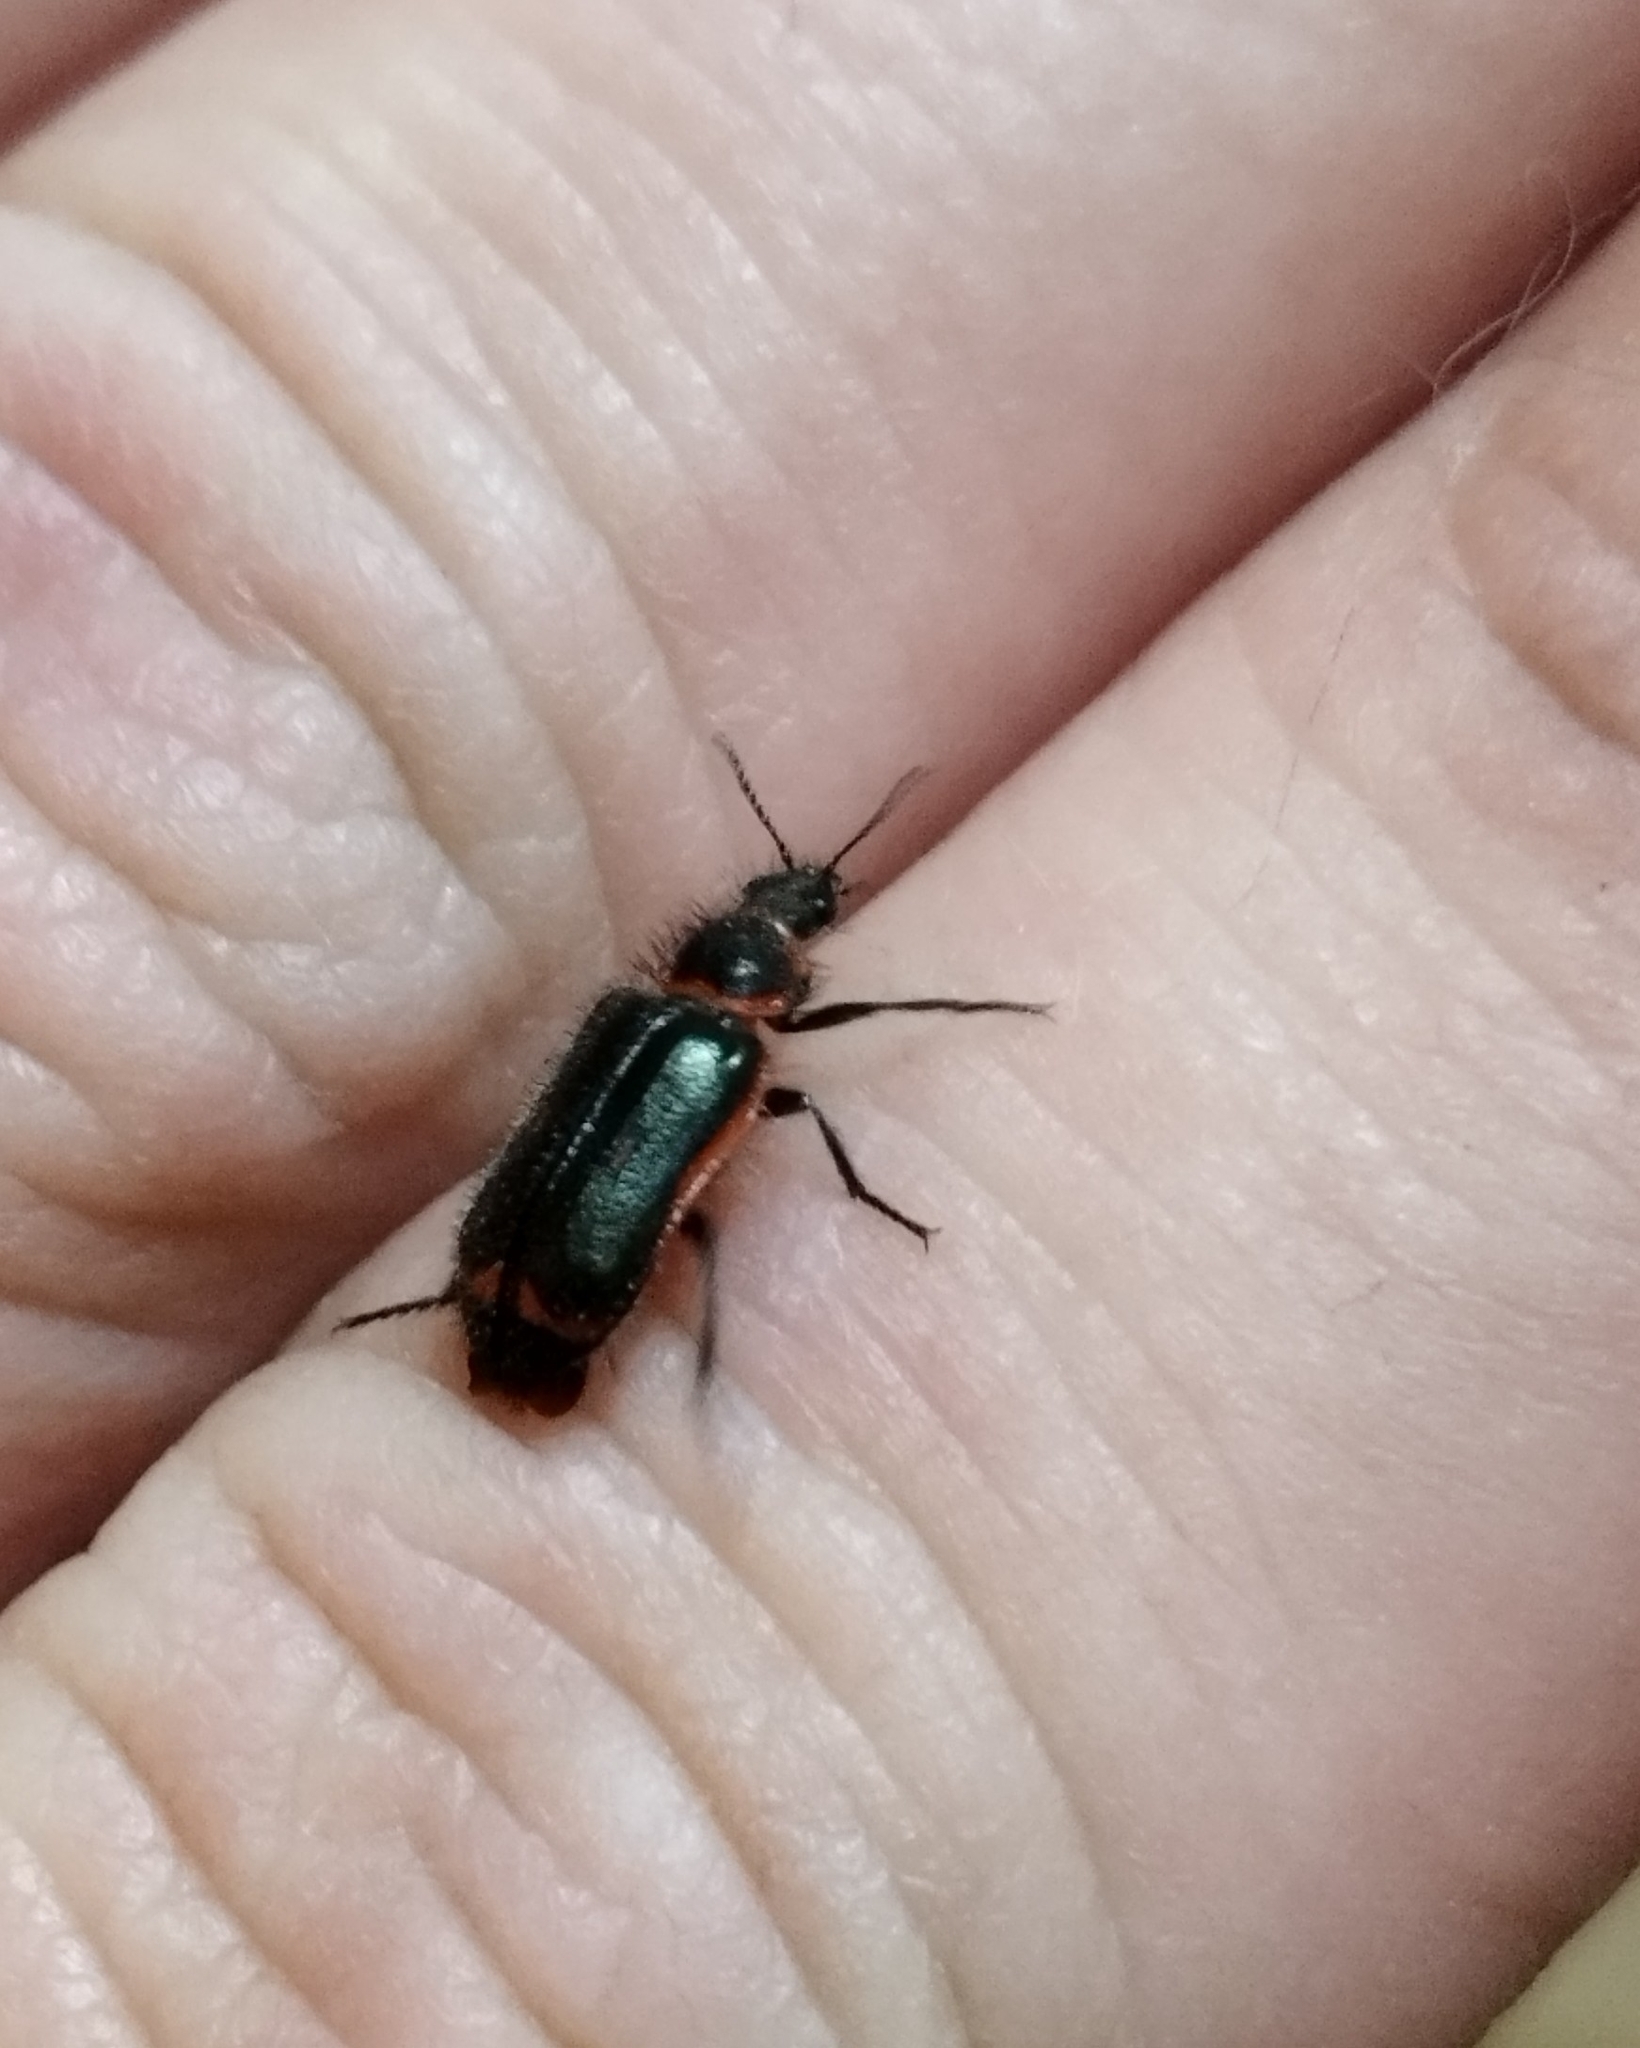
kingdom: Animalia
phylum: Arthropoda
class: Insecta
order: Coleoptera
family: Melyridae
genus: Astylus
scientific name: Astylus
